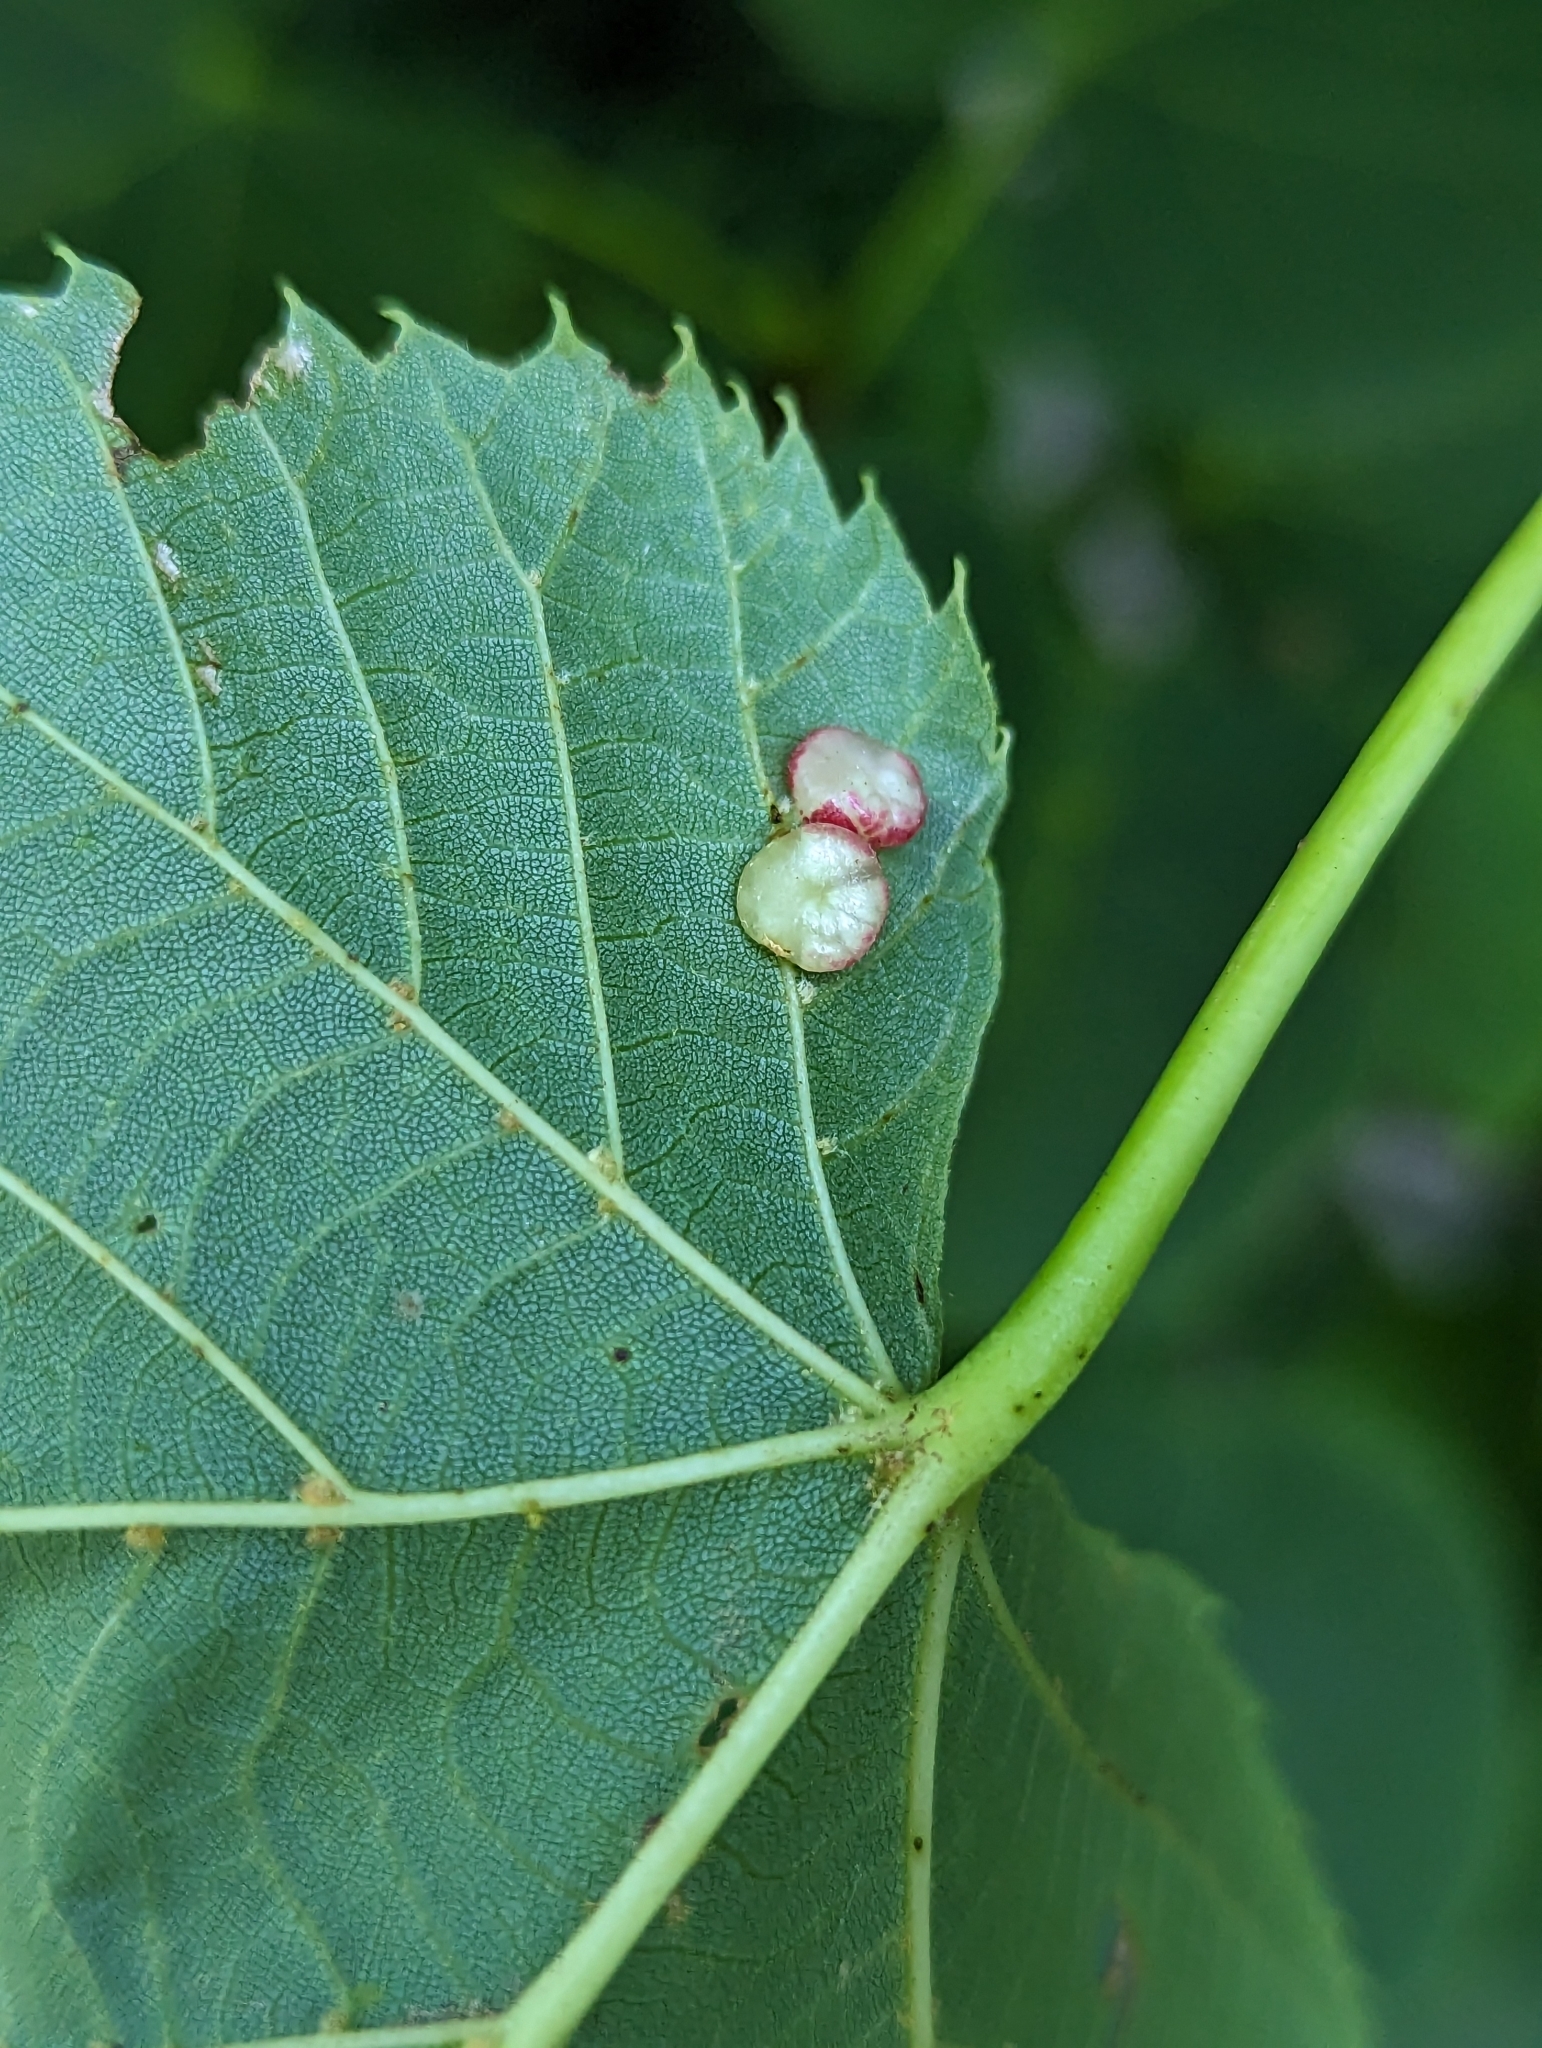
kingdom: Animalia
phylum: Arthropoda
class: Insecta
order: Diptera
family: Cecidomyiidae
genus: Contarinia
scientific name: Contarinia verrucicola
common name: Linden wart gall midge
